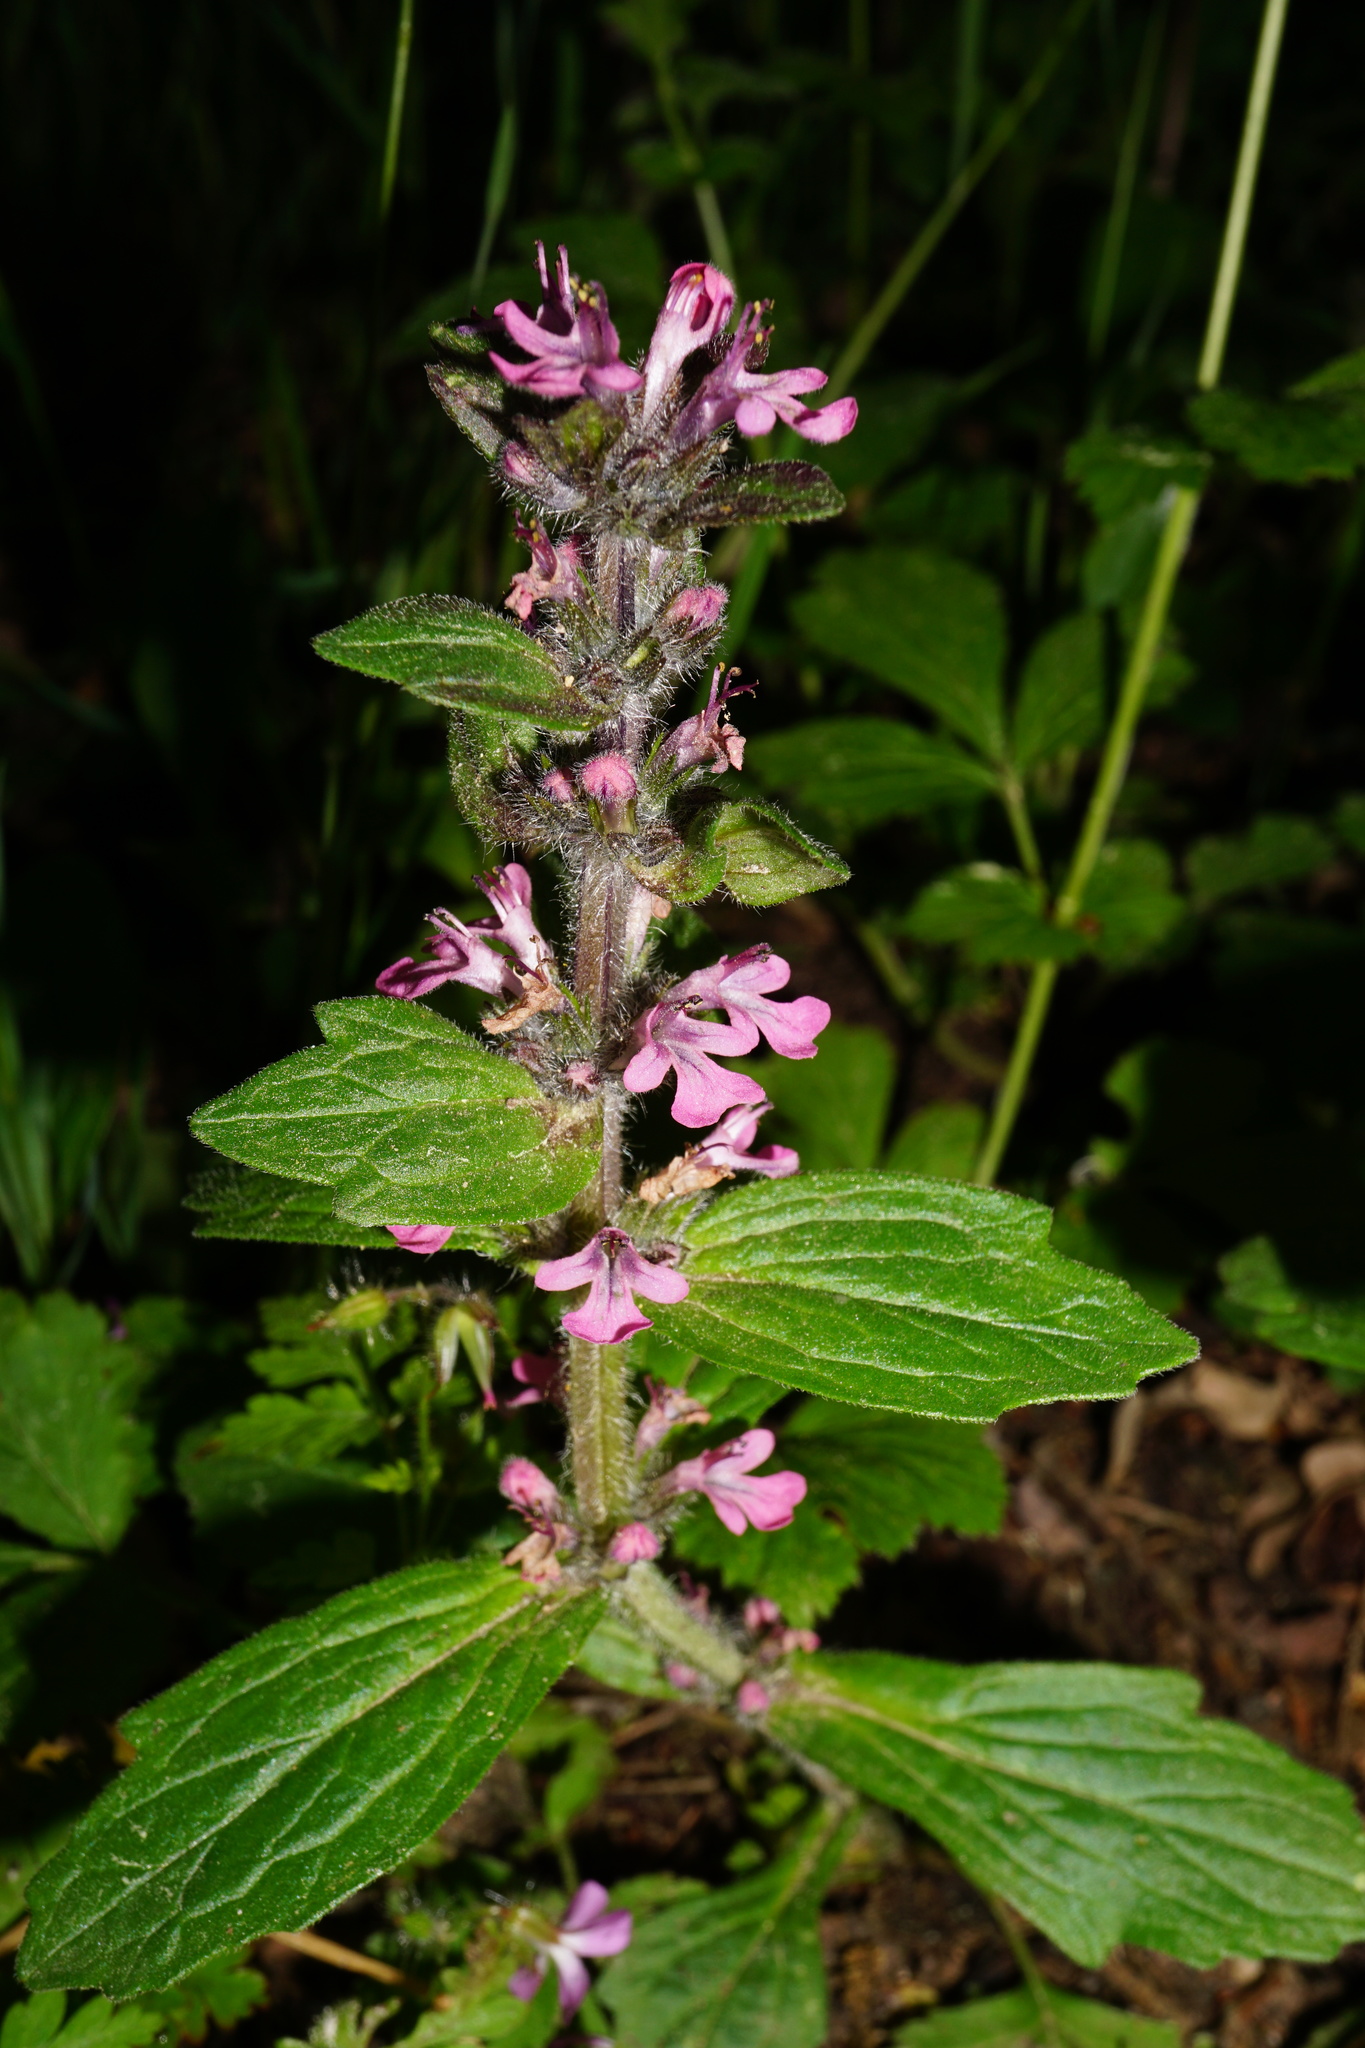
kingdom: Plantae
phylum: Tracheophyta
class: Magnoliopsida
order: Lamiales
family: Lamiaceae
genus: Ajuga
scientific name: Ajuga genevensis
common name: Blue bugle
